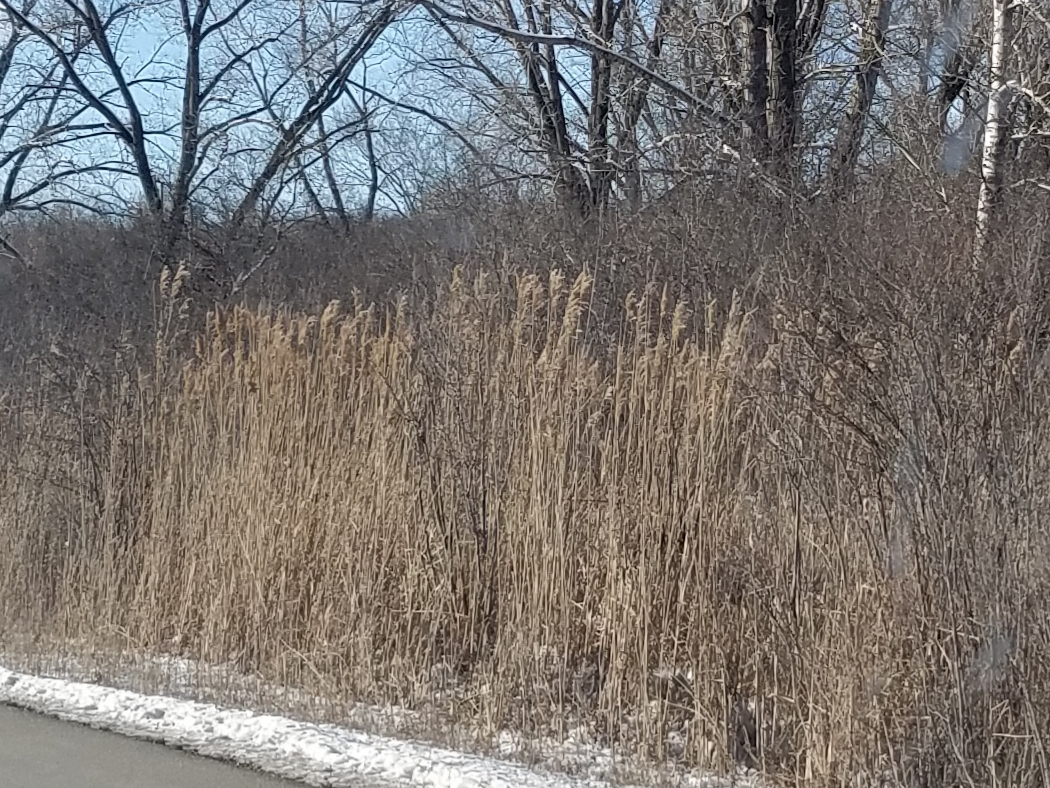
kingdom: Plantae
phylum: Tracheophyta
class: Liliopsida
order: Poales
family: Poaceae
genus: Phragmites
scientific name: Phragmites australis
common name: Common reed
